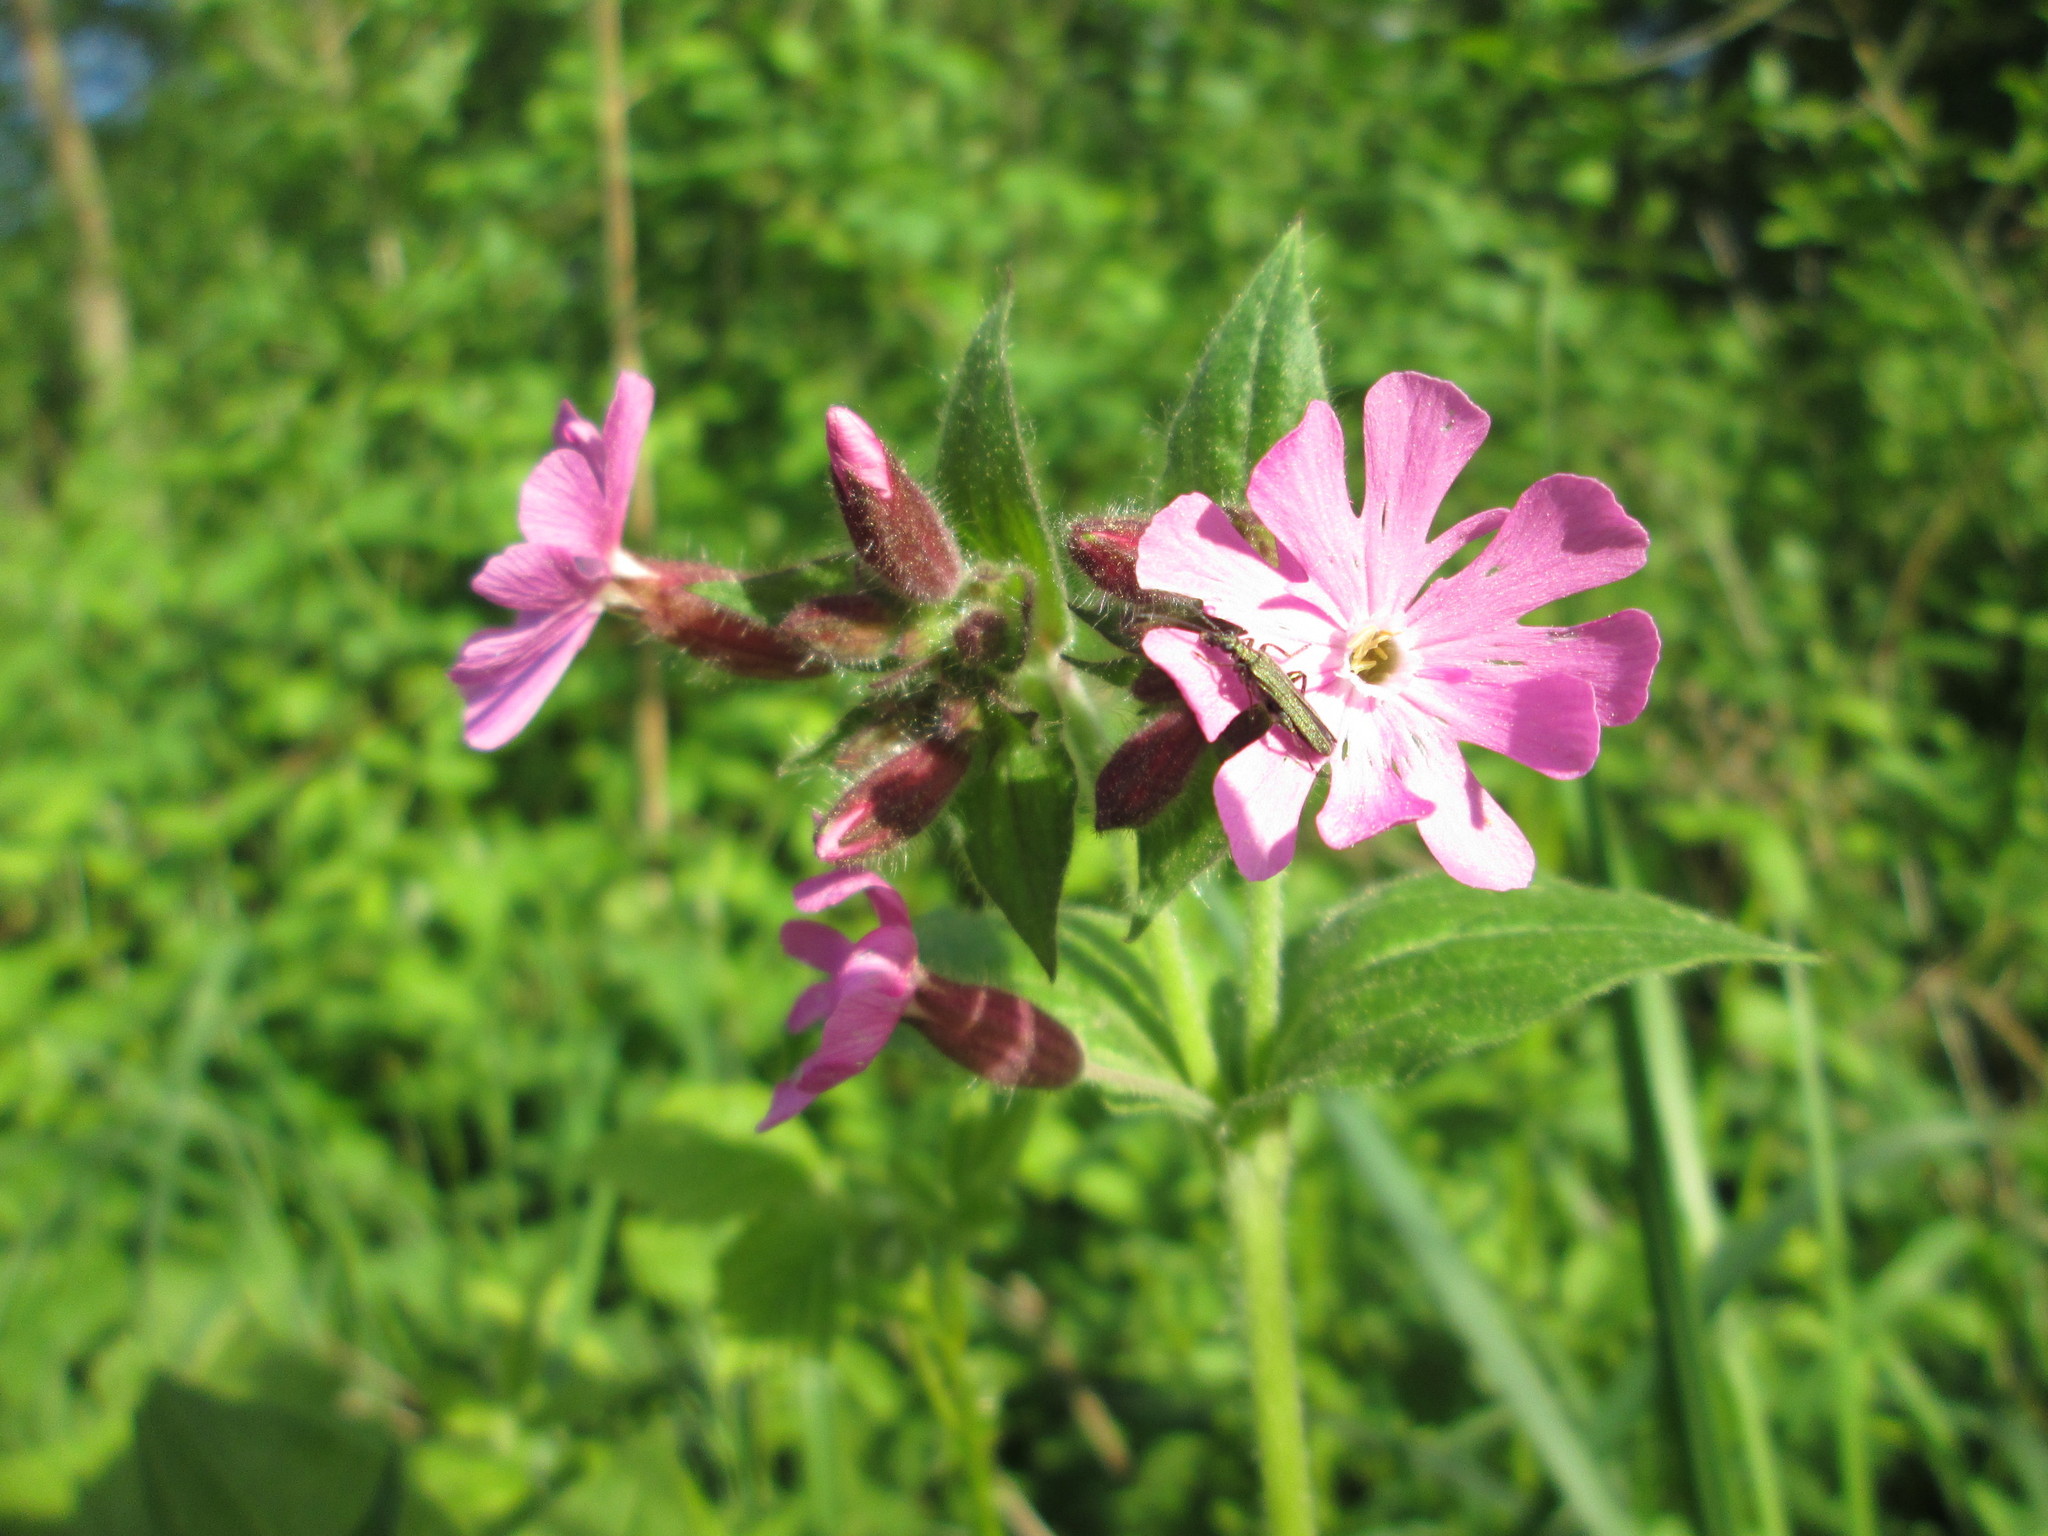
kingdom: Plantae
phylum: Tracheophyta
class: Magnoliopsida
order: Caryophyllales
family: Caryophyllaceae
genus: Silene
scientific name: Silene dioica
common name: Red campion
